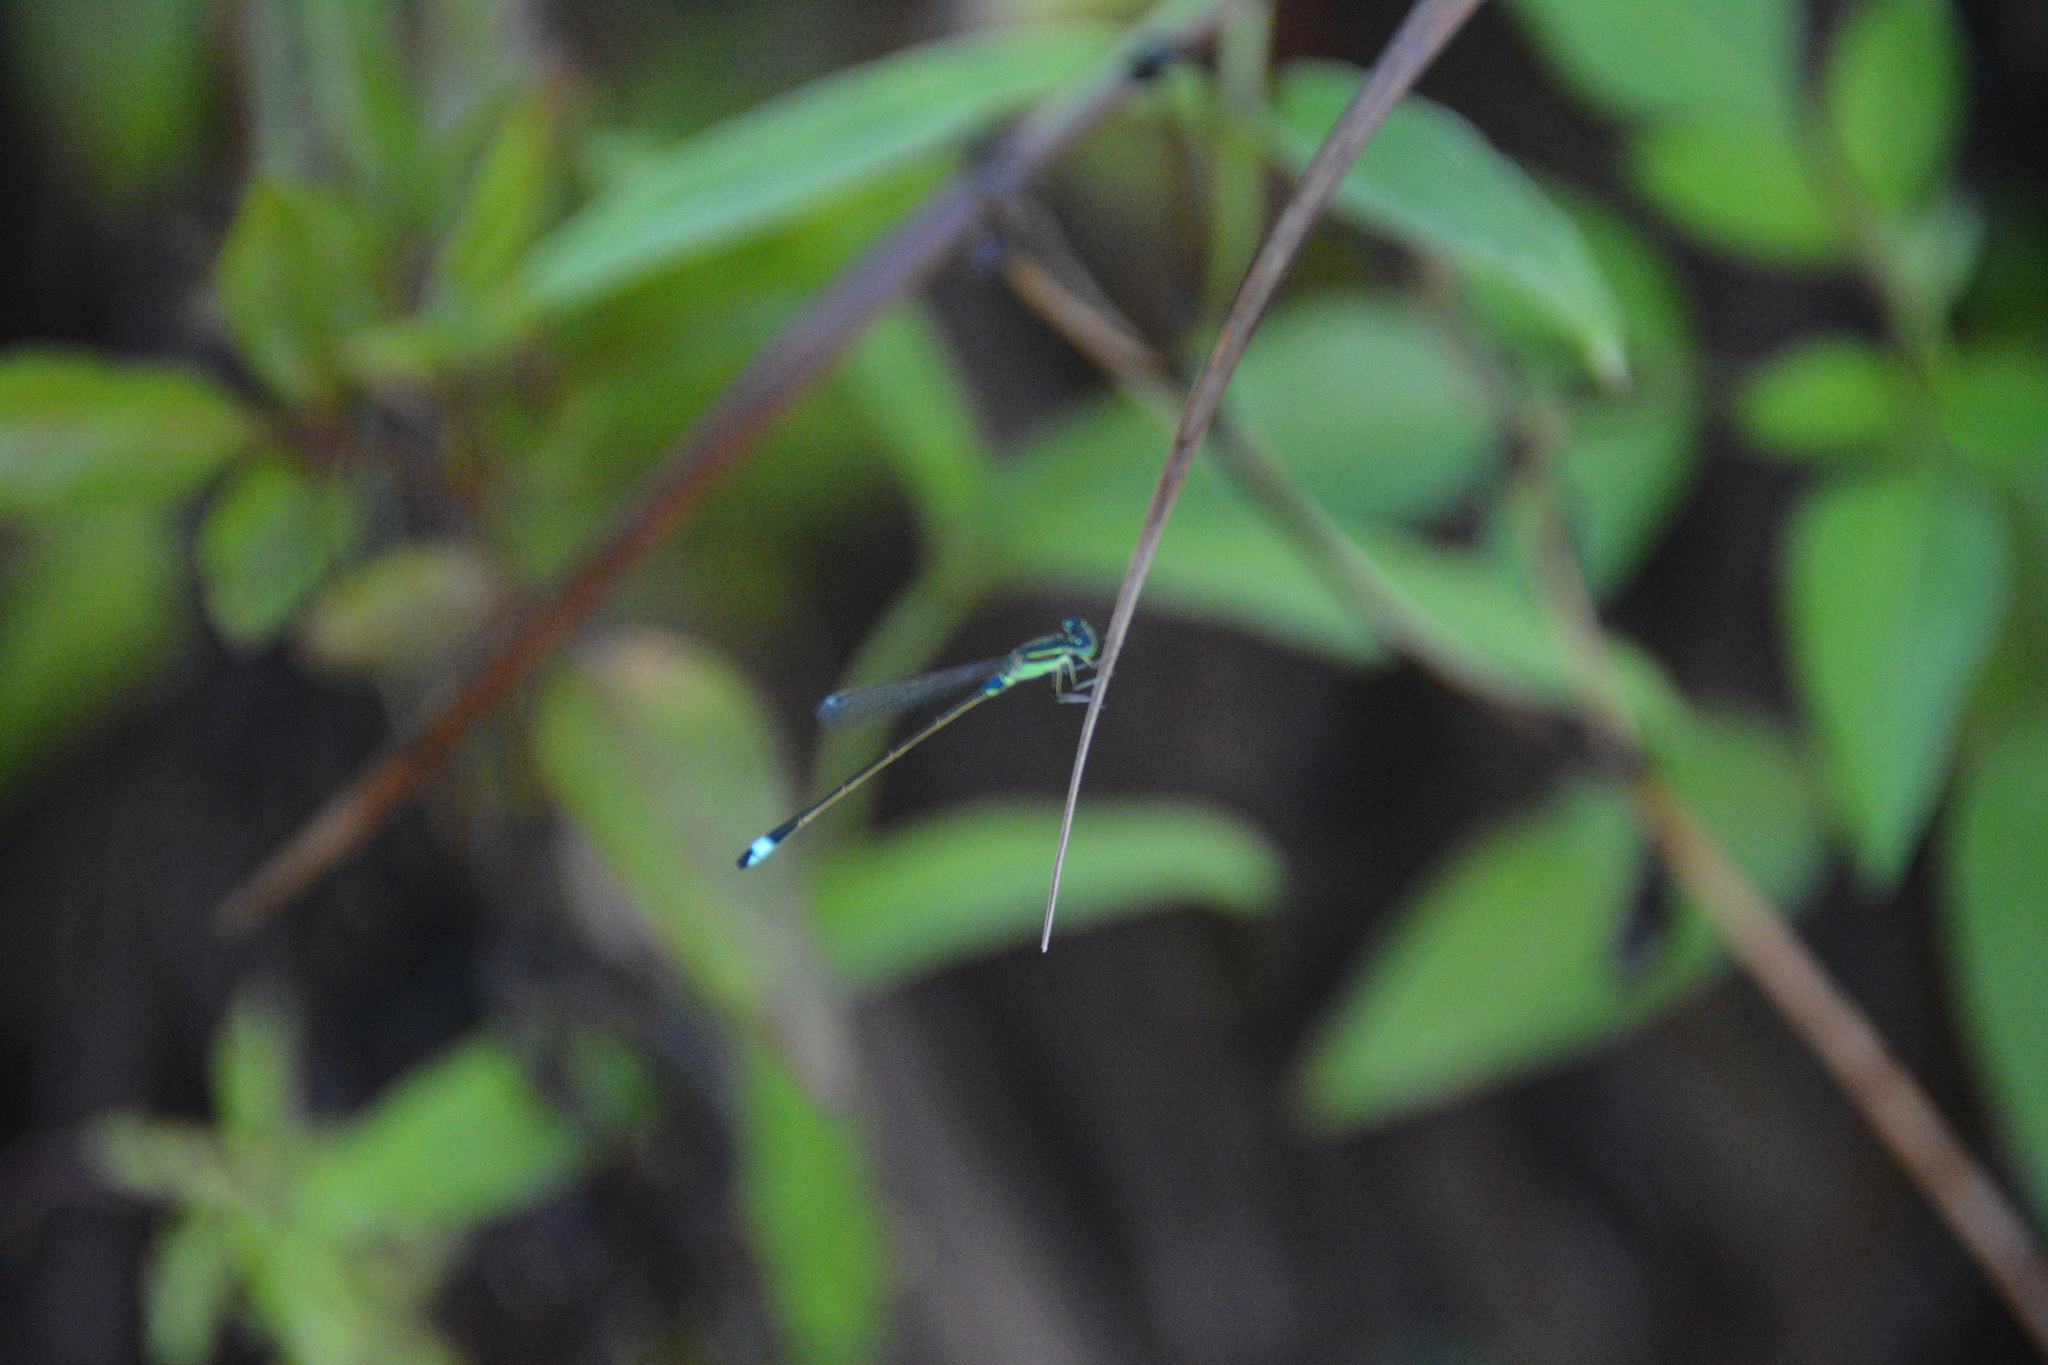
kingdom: Animalia
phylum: Arthropoda
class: Insecta
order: Odonata
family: Coenagrionidae
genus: Ischnura
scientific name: Ischnura senegalensis
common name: Tropical bluetail
